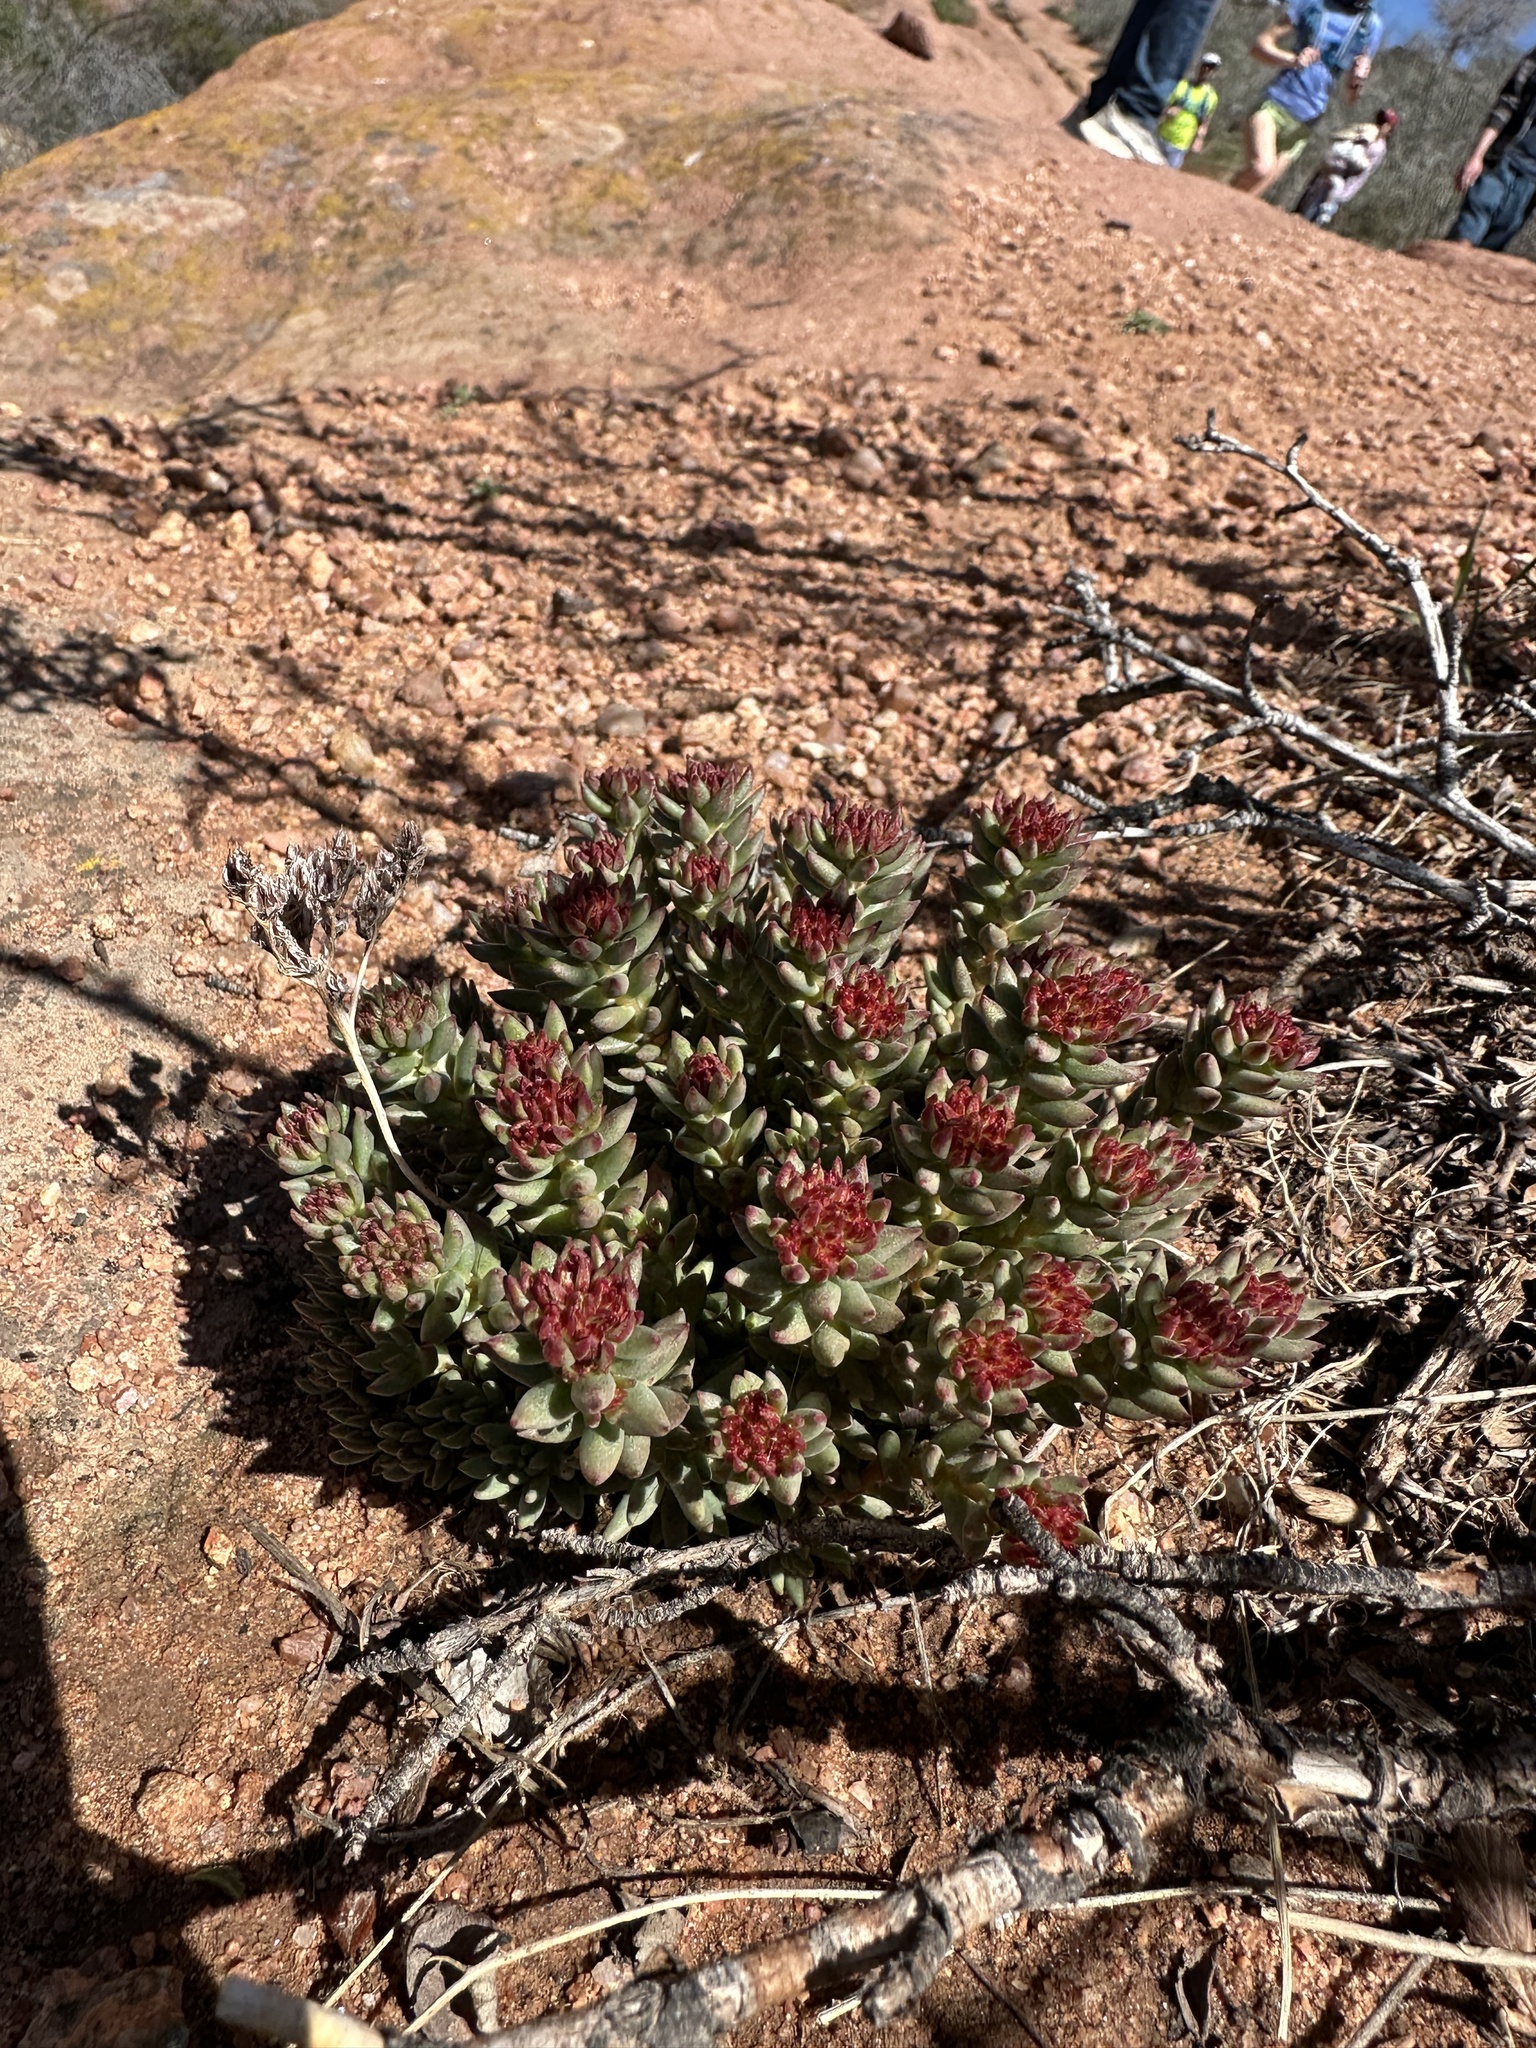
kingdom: Plantae
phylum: Tracheophyta
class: Magnoliopsida
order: Saxifragales
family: Crassulaceae
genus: Sedum
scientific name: Sedum lanceolatum
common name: Common stonecrop
